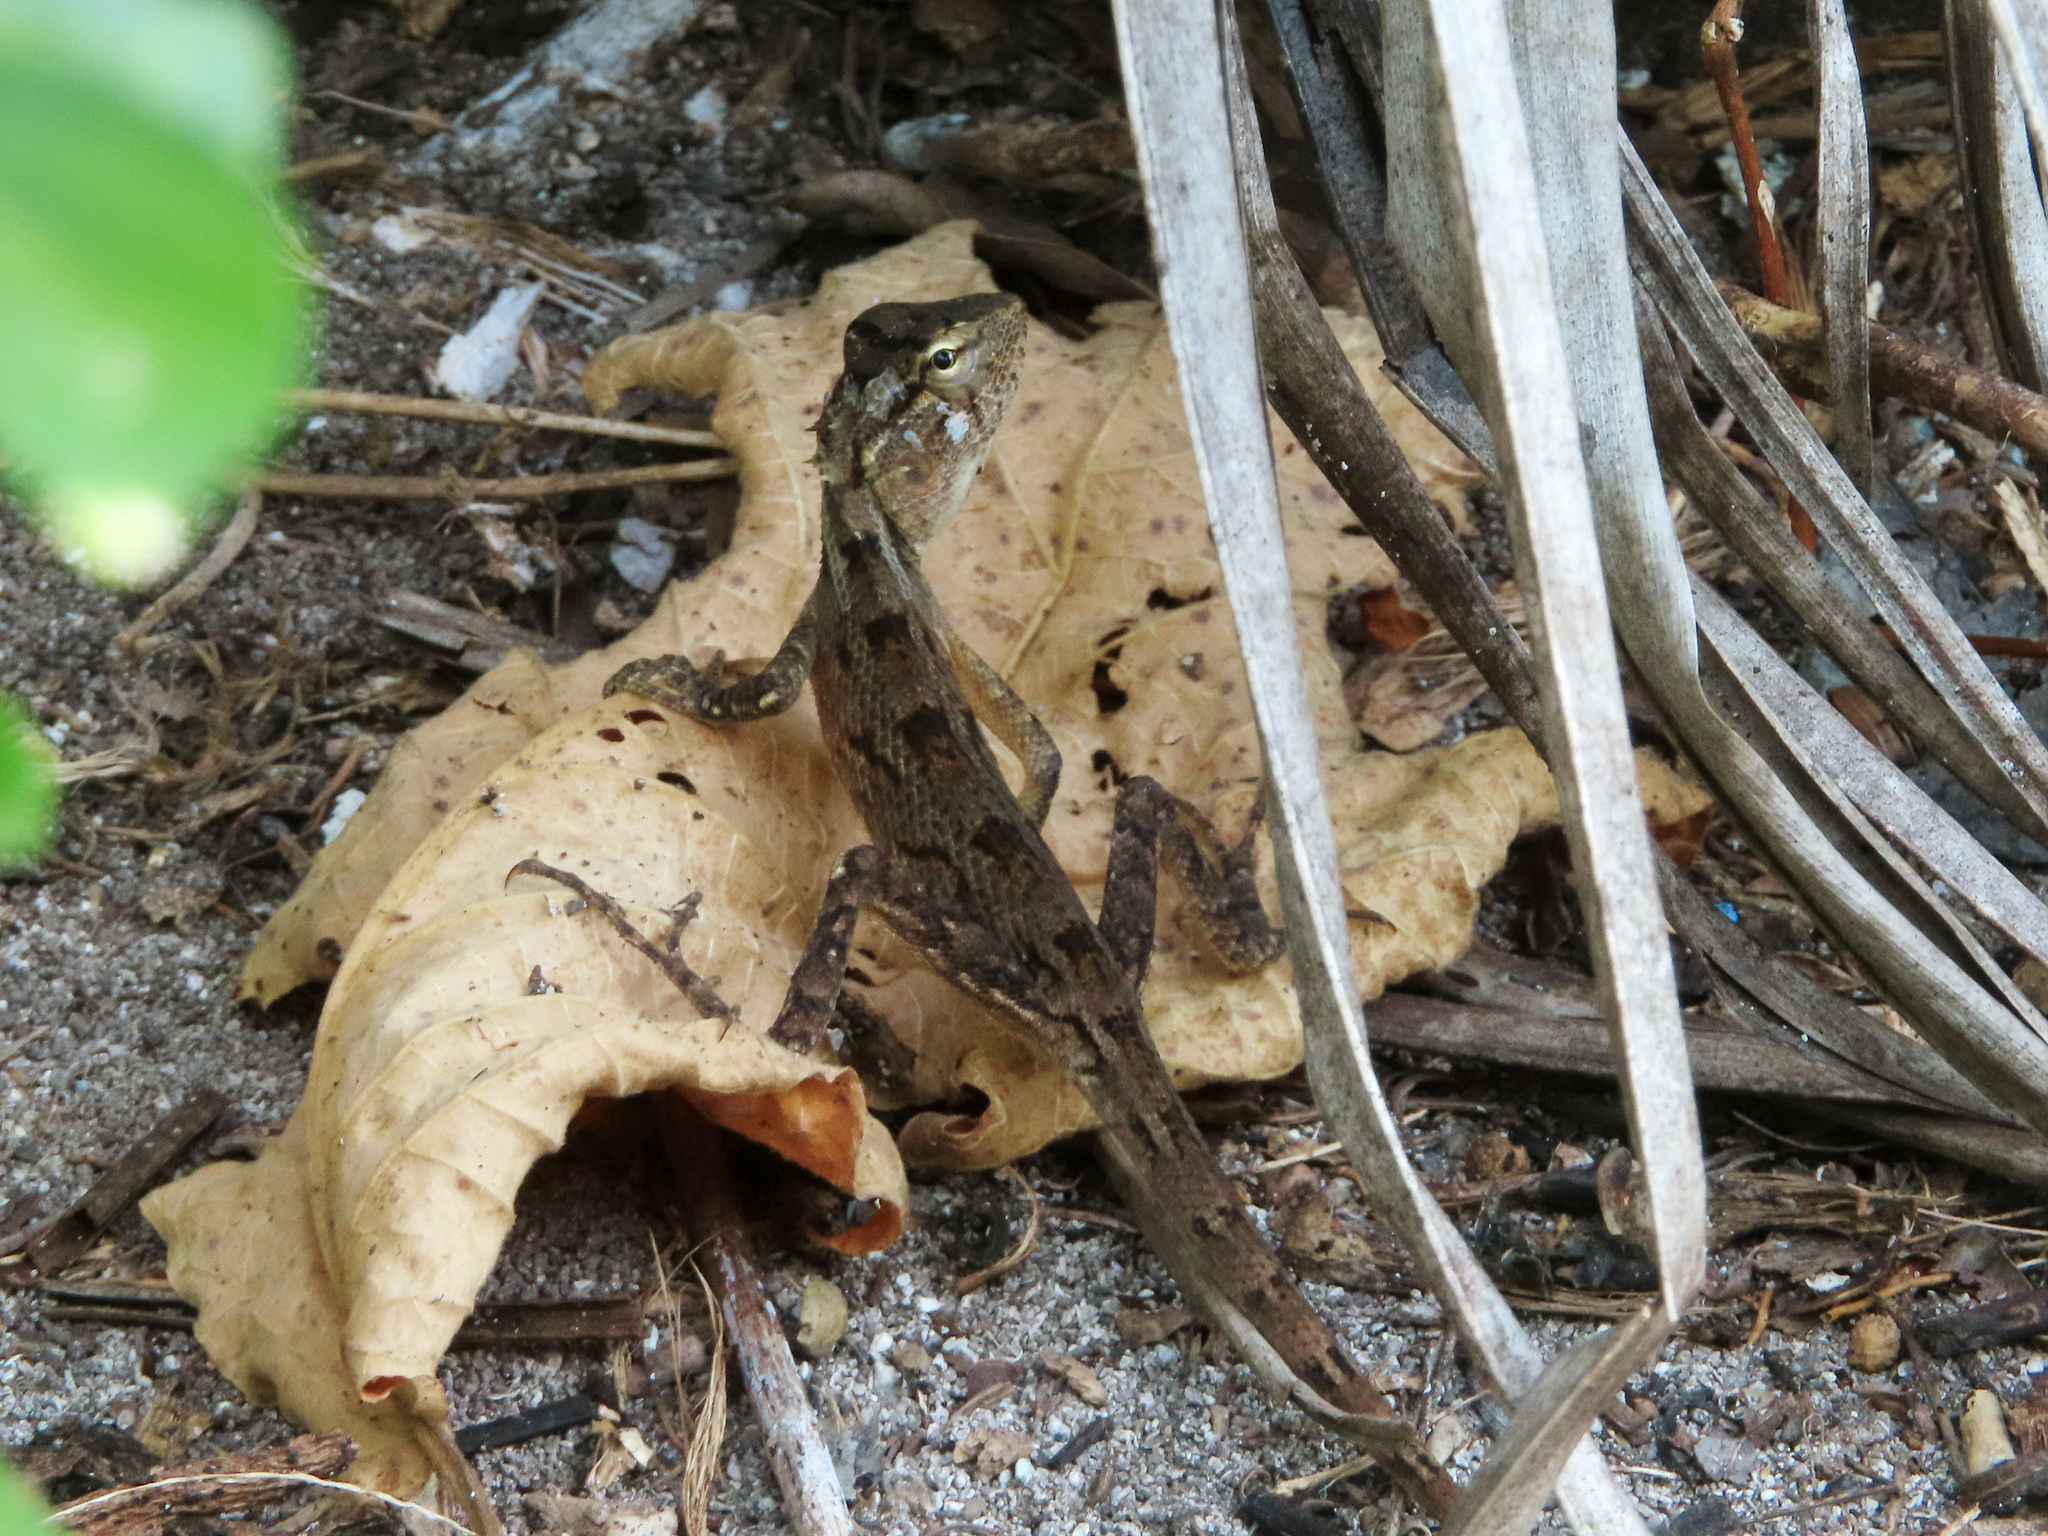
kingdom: Animalia
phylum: Chordata
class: Squamata
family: Agamidae
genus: Calotes
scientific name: Calotes versicolor
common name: Oriental garden lizard
